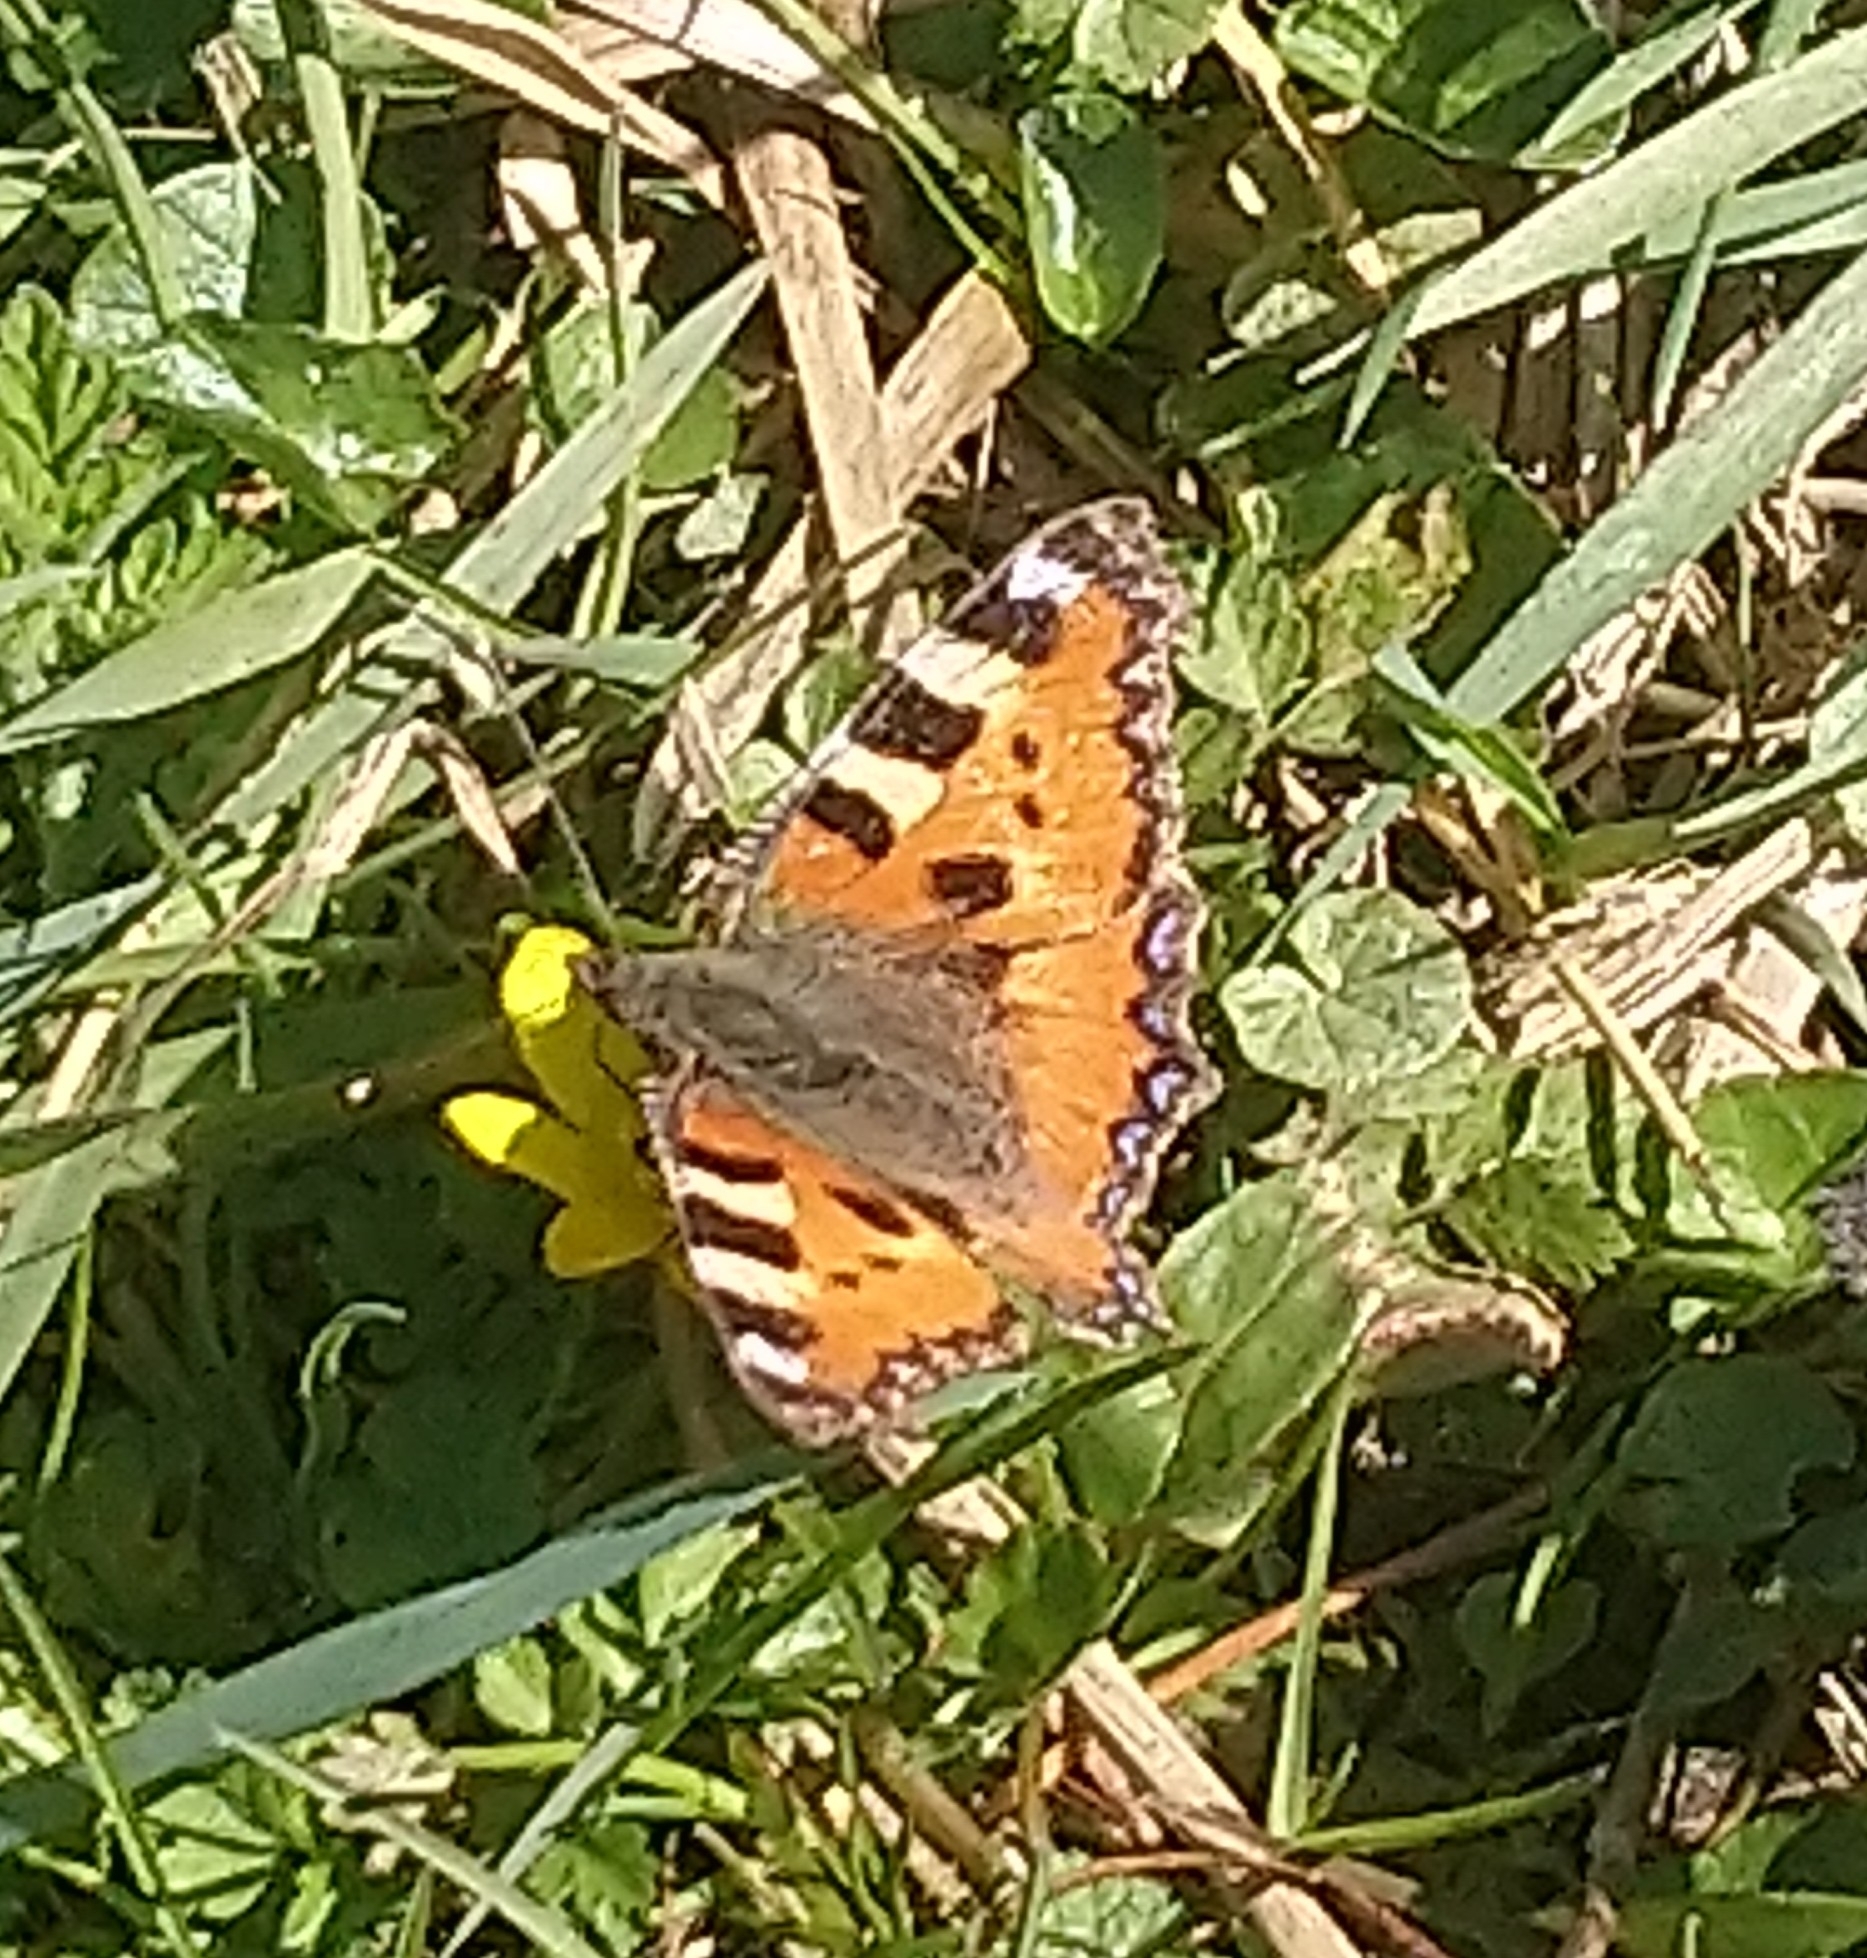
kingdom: Animalia
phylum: Arthropoda
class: Insecta
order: Lepidoptera
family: Nymphalidae
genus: Aglais
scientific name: Aglais urticae
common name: Small tortoiseshell
